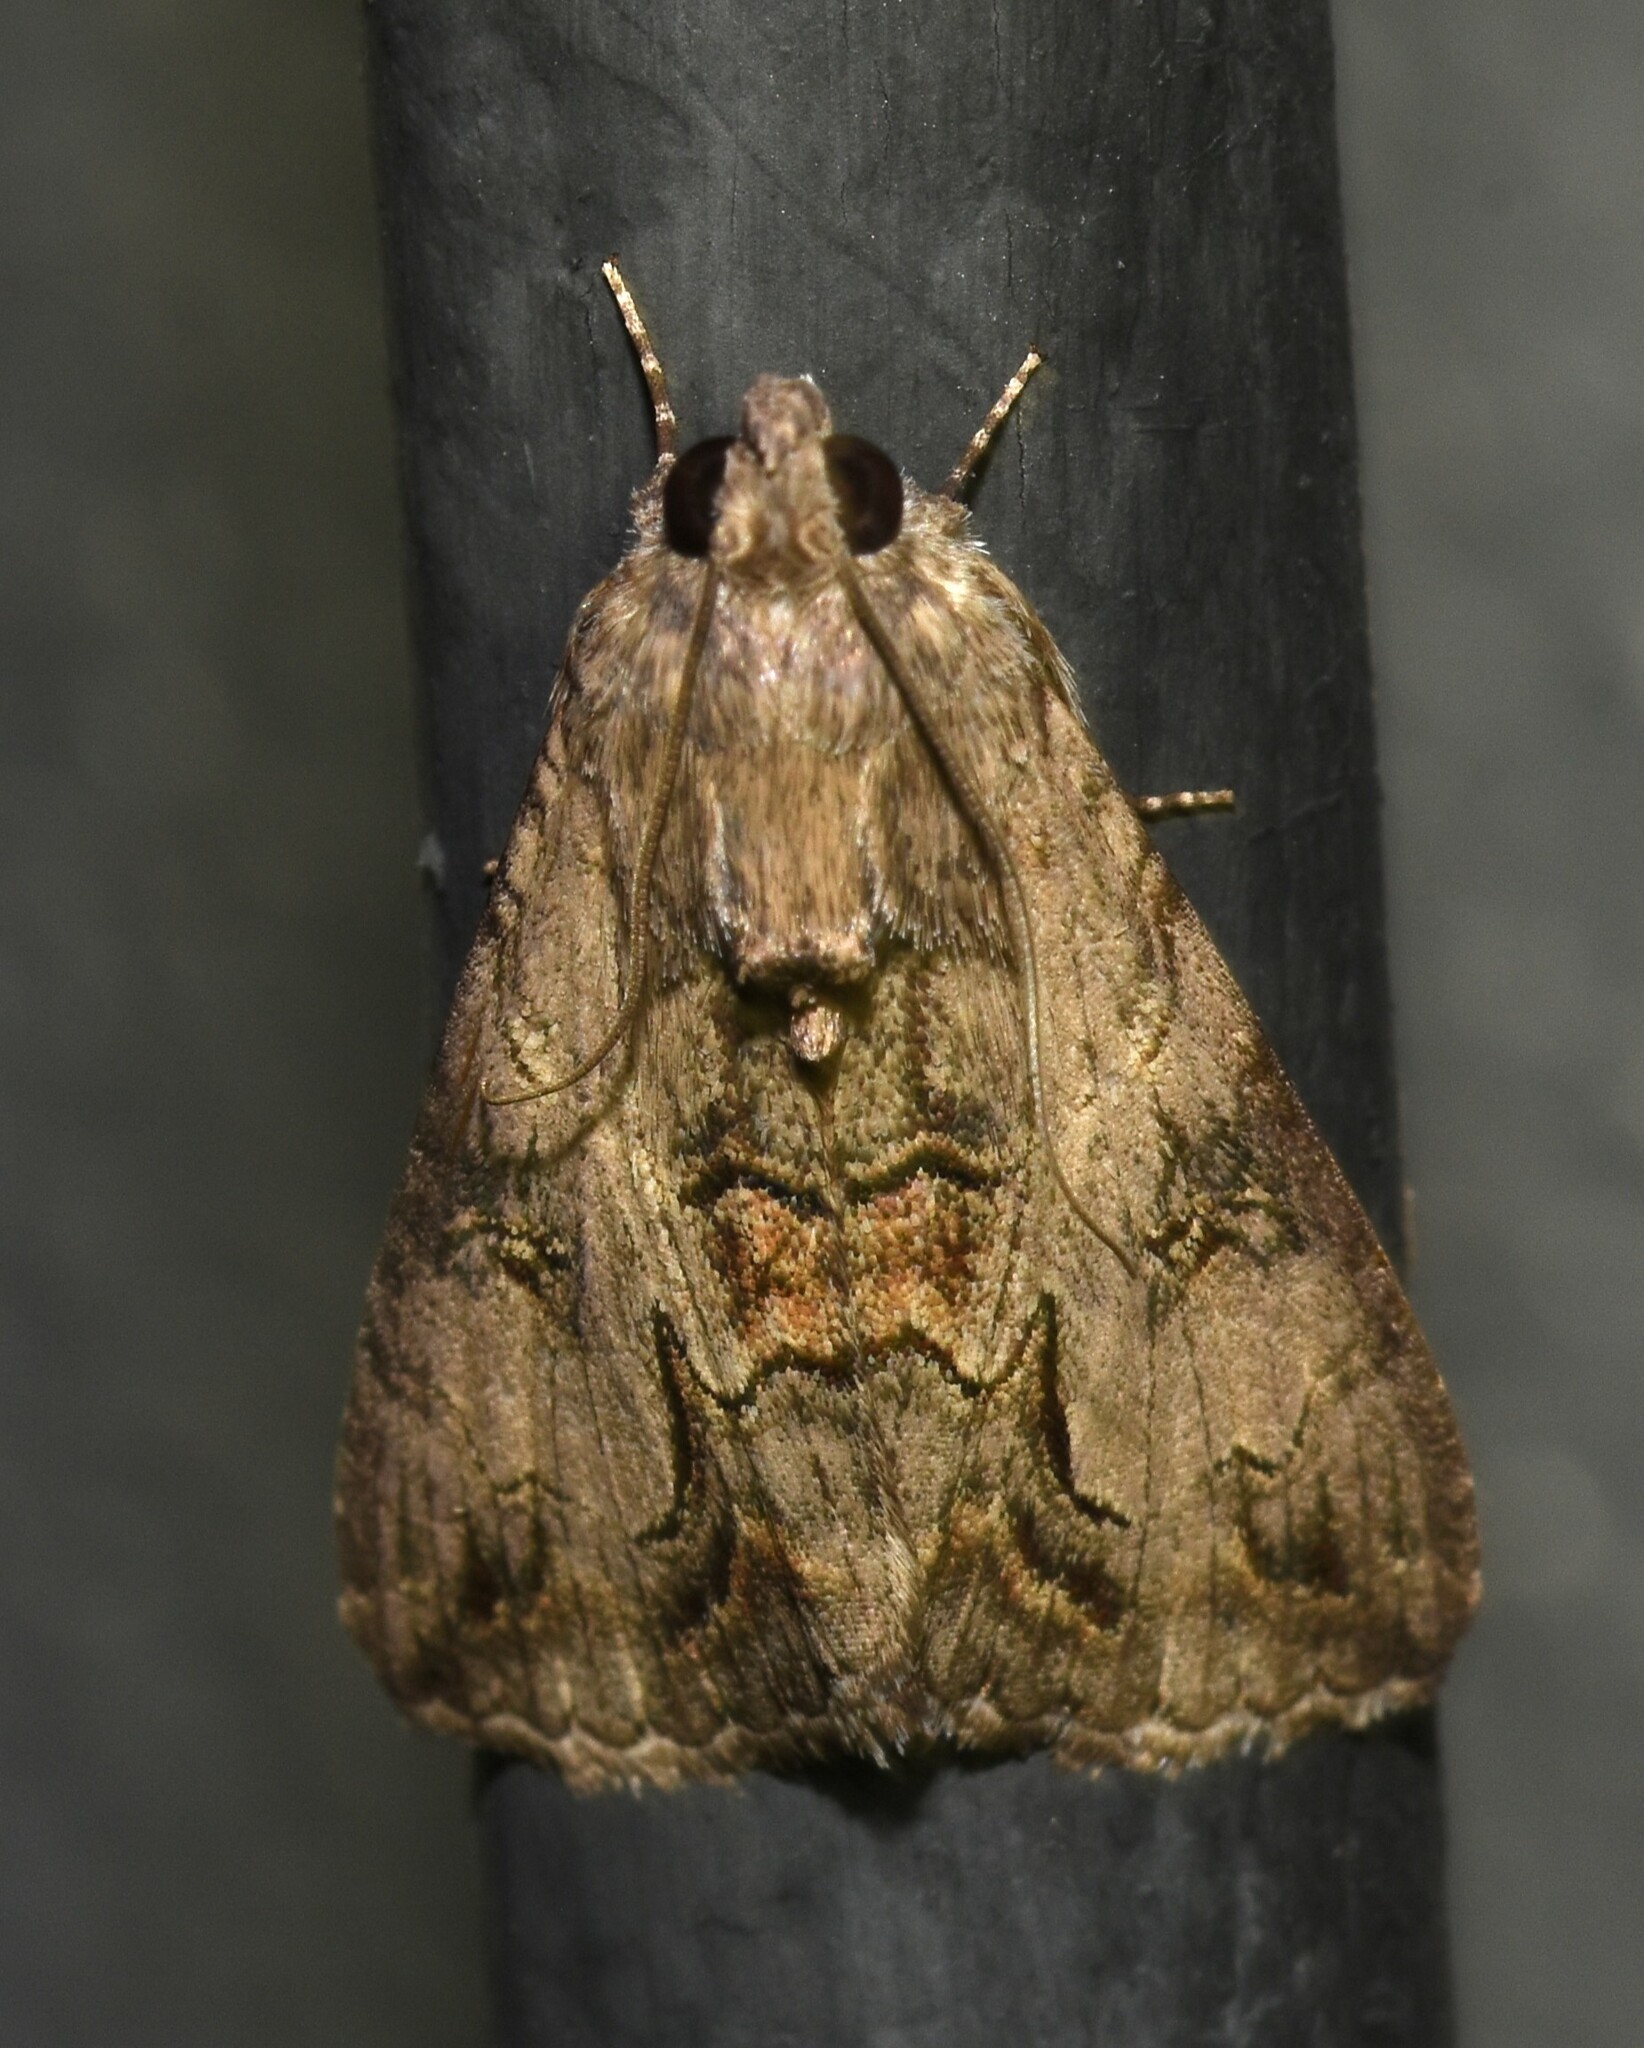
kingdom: Animalia
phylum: Arthropoda
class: Insecta
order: Lepidoptera
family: Erebidae
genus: Melipotis
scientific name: Melipotis jucunda
